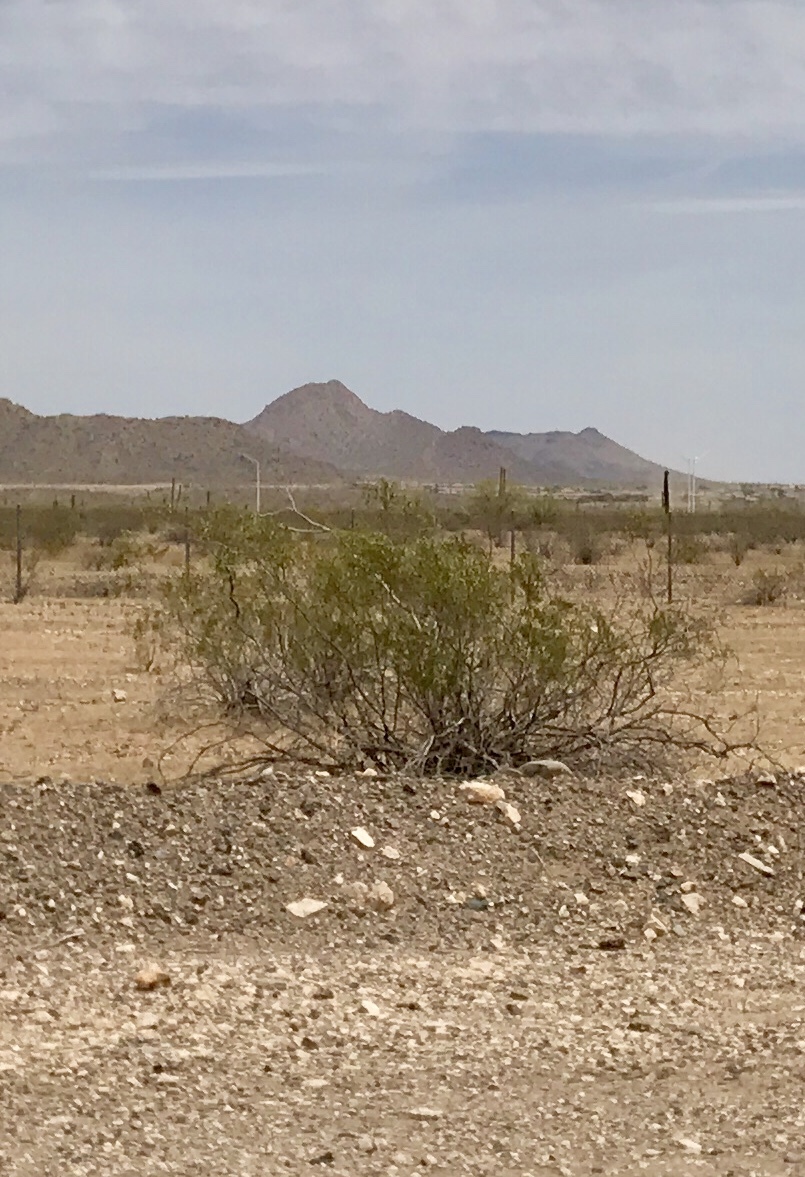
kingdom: Plantae
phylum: Tracheophyta
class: Magnoliopsida
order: Zygophyllales
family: Zygophyllaceae
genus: Larrea
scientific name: Larrea tridentata
